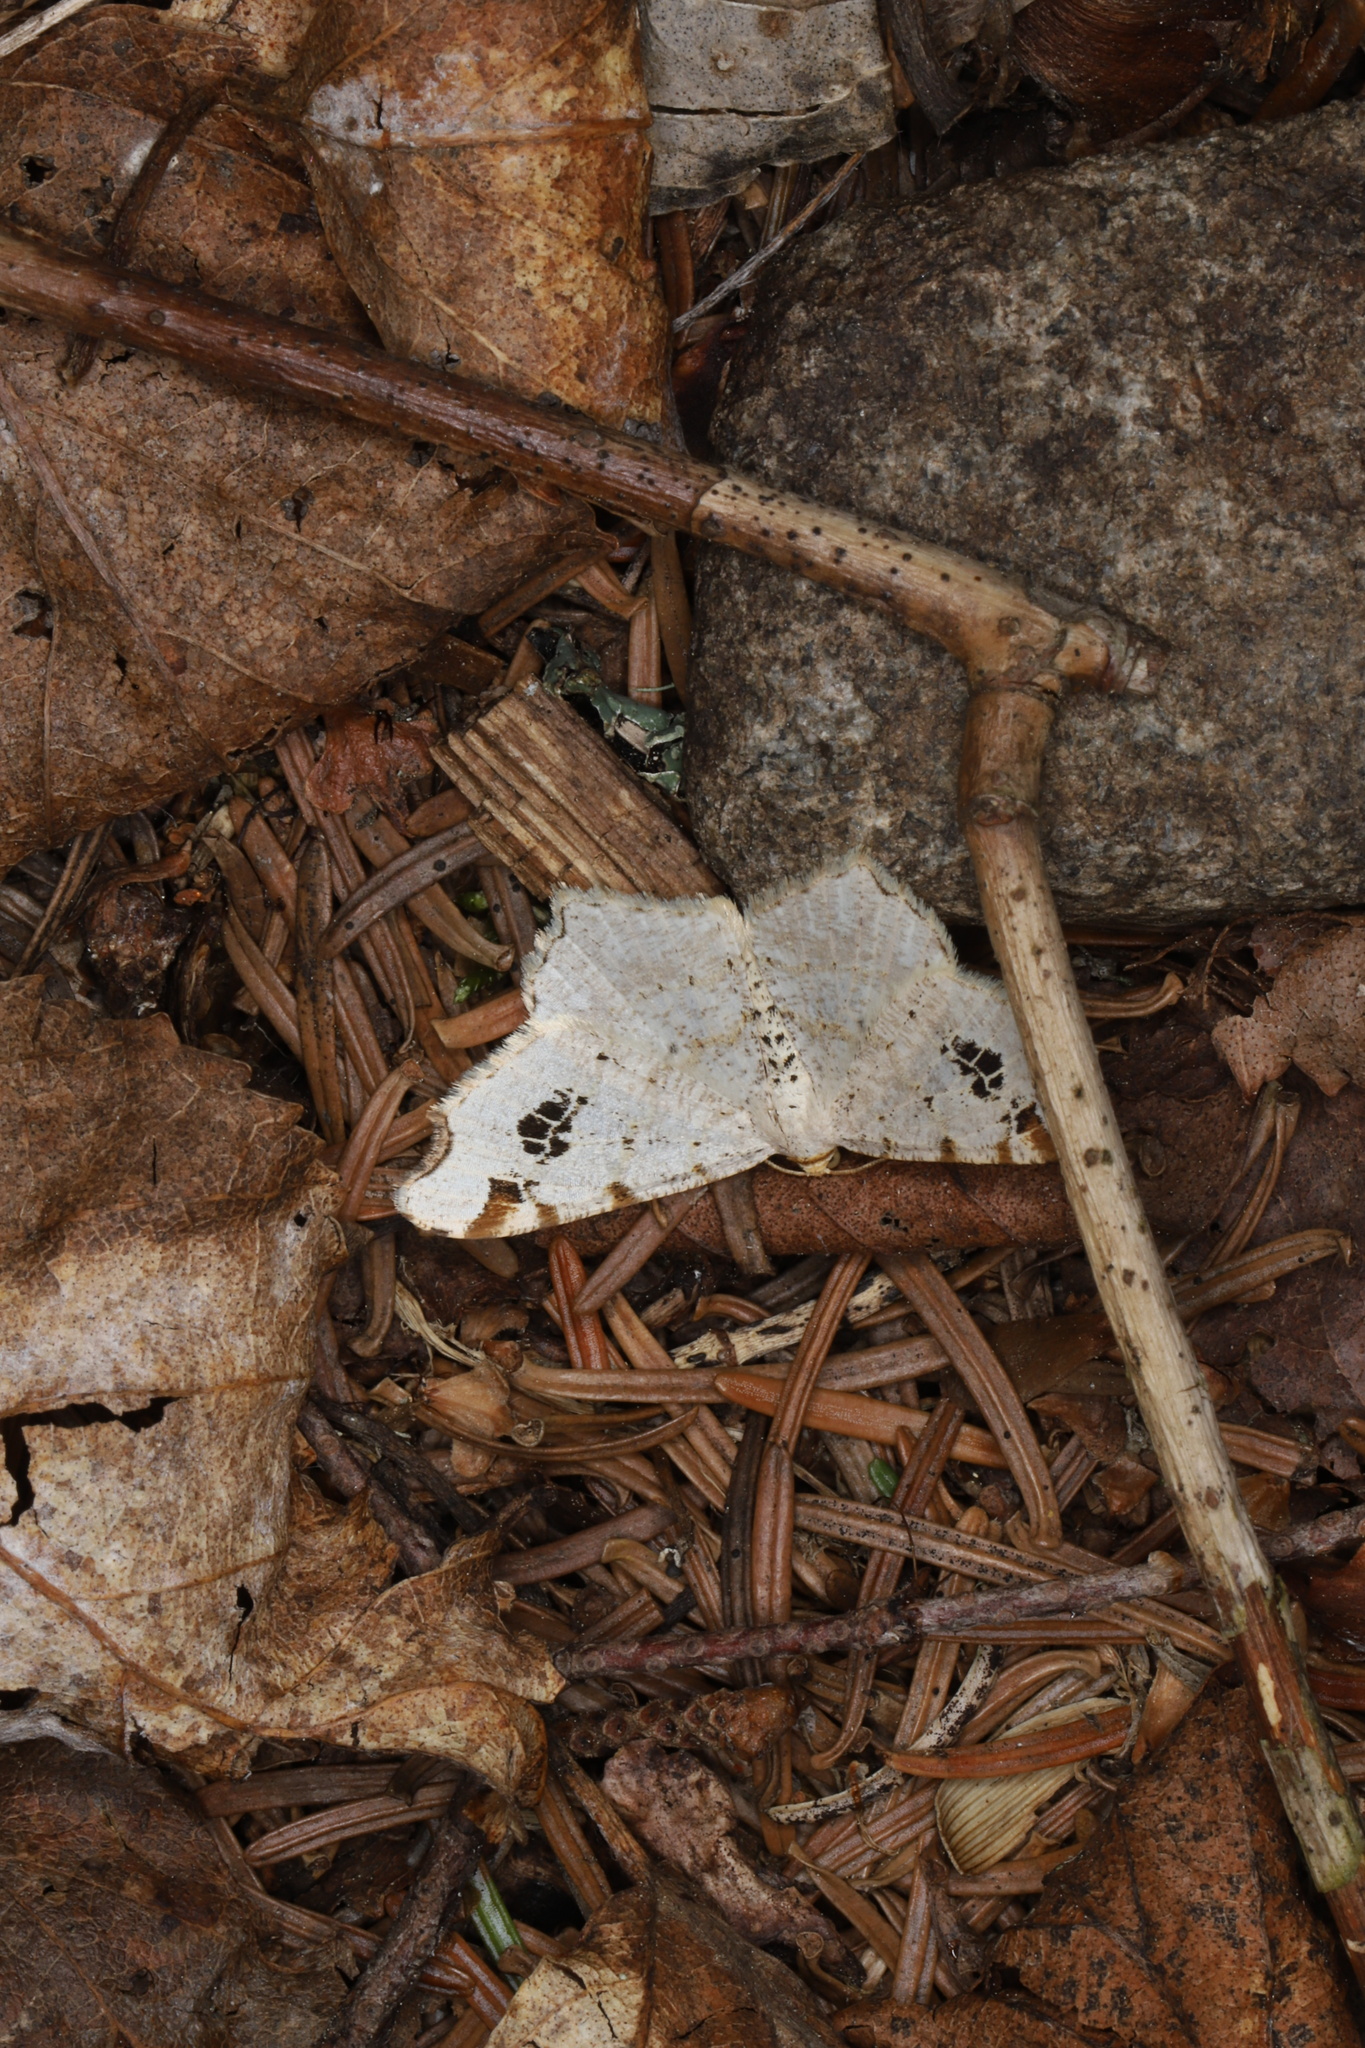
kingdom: Animalia
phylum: Arthropoda
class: Insecta
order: Lepidoptera
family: Geometridae
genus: Macaria
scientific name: Macaria ulsterata
